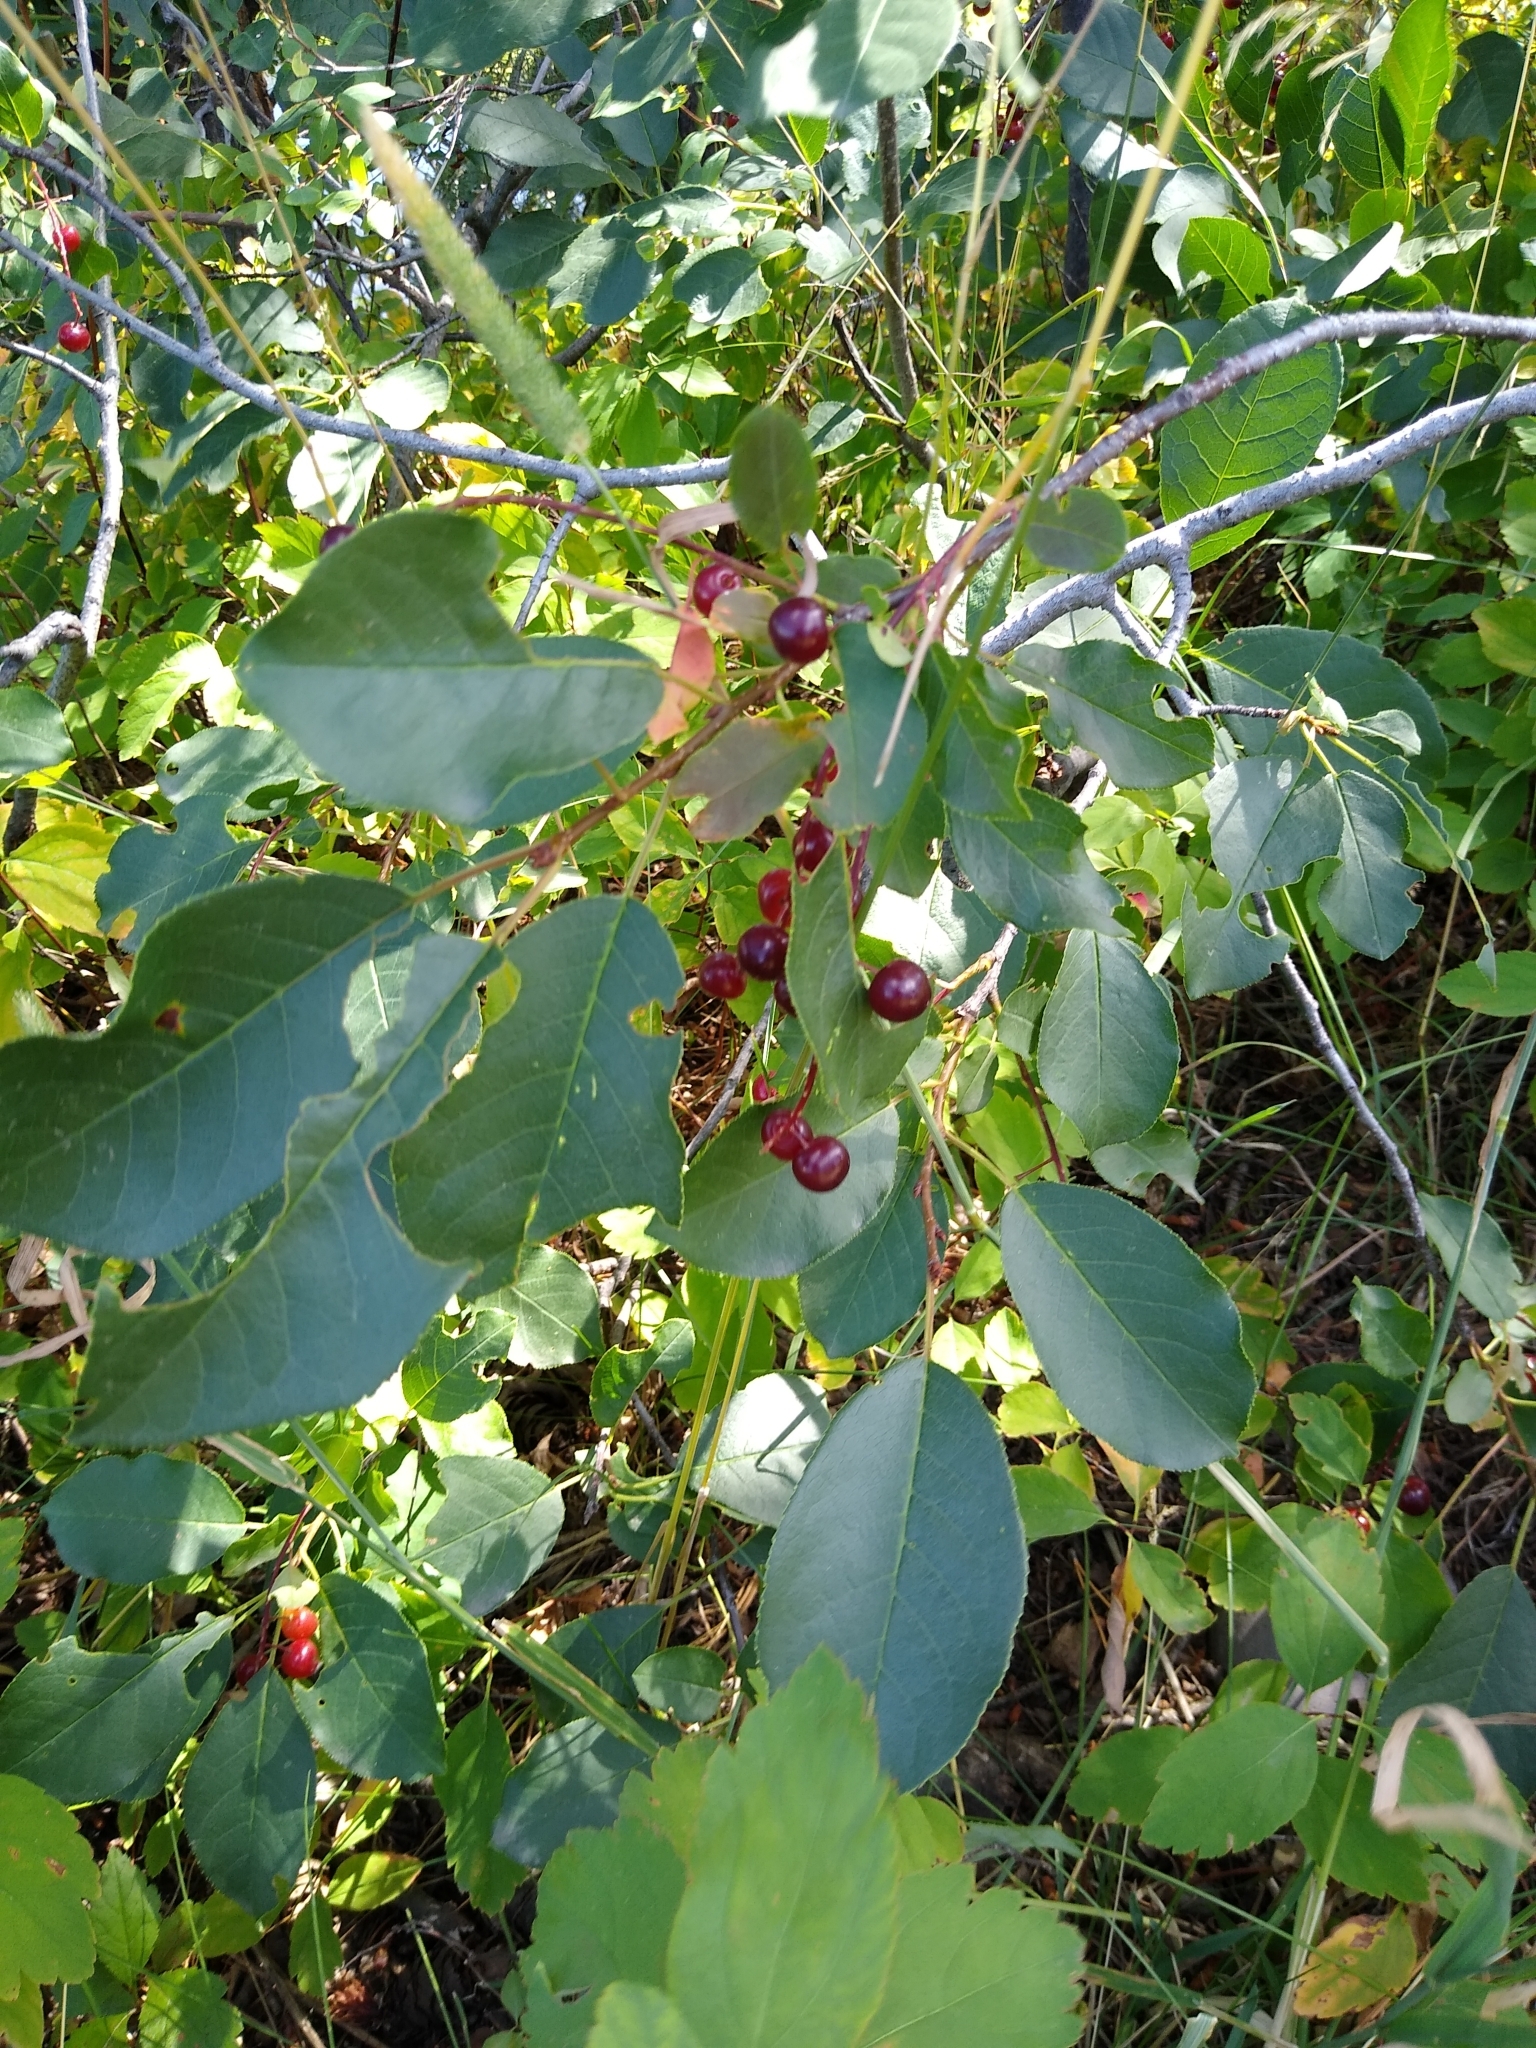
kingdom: Plantae
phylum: Tracheophyta
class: Magnoliopsida
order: Rosales
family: Rosaceae
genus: Prunus
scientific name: Prunus virginiana
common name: Chokecherry
